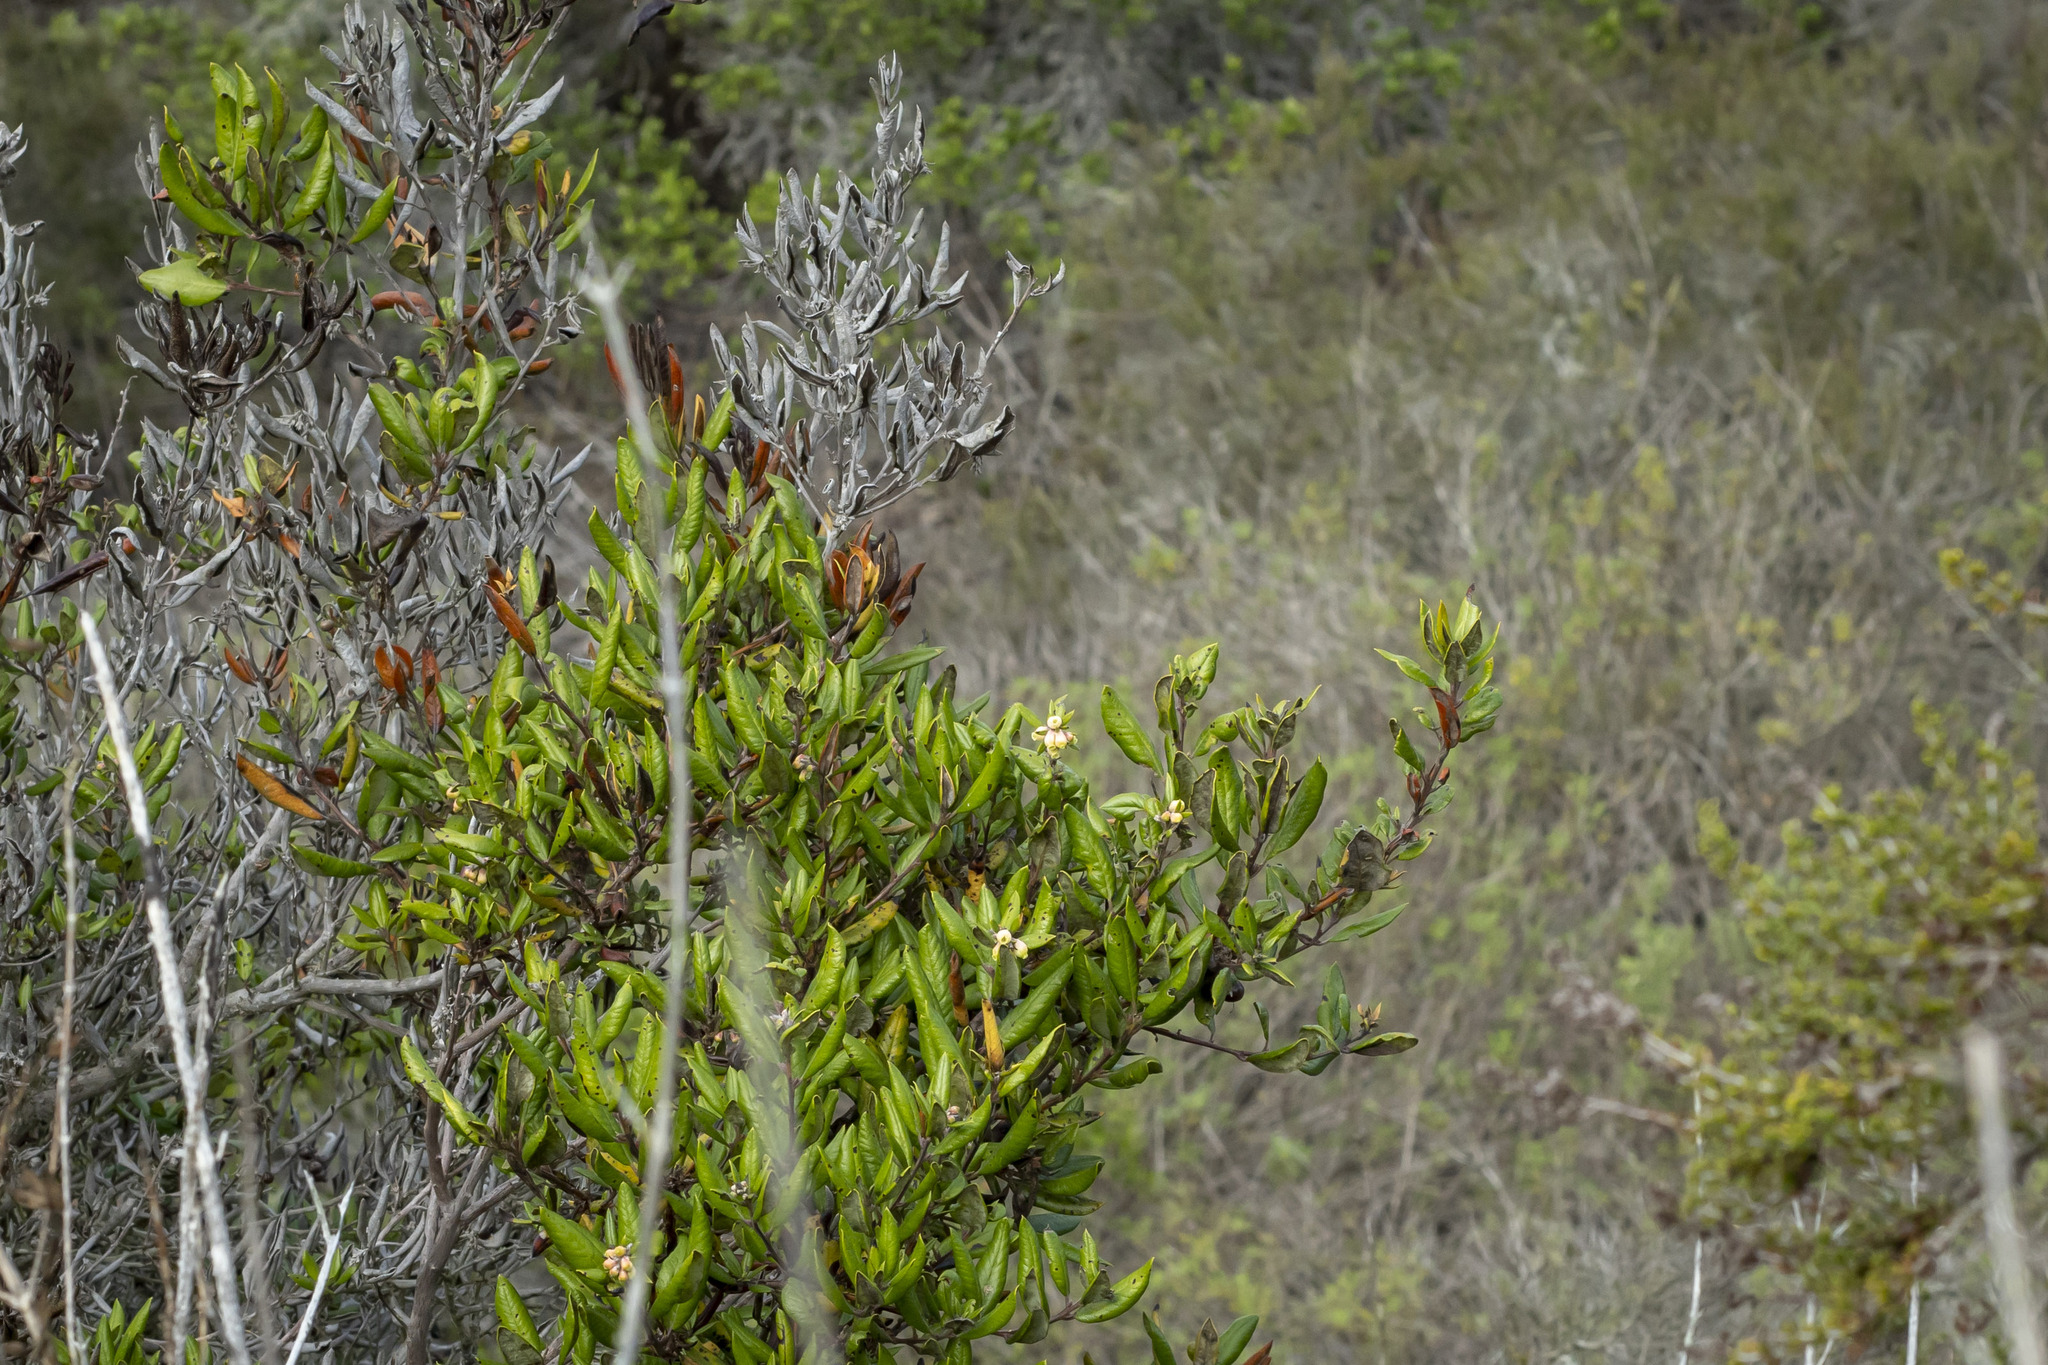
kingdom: Plantae
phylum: Tracheophyta
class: Magnoliopsida
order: Ericales
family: Ericaceae
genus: Arctostaphylos
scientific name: Arctostaphylos bicolor
